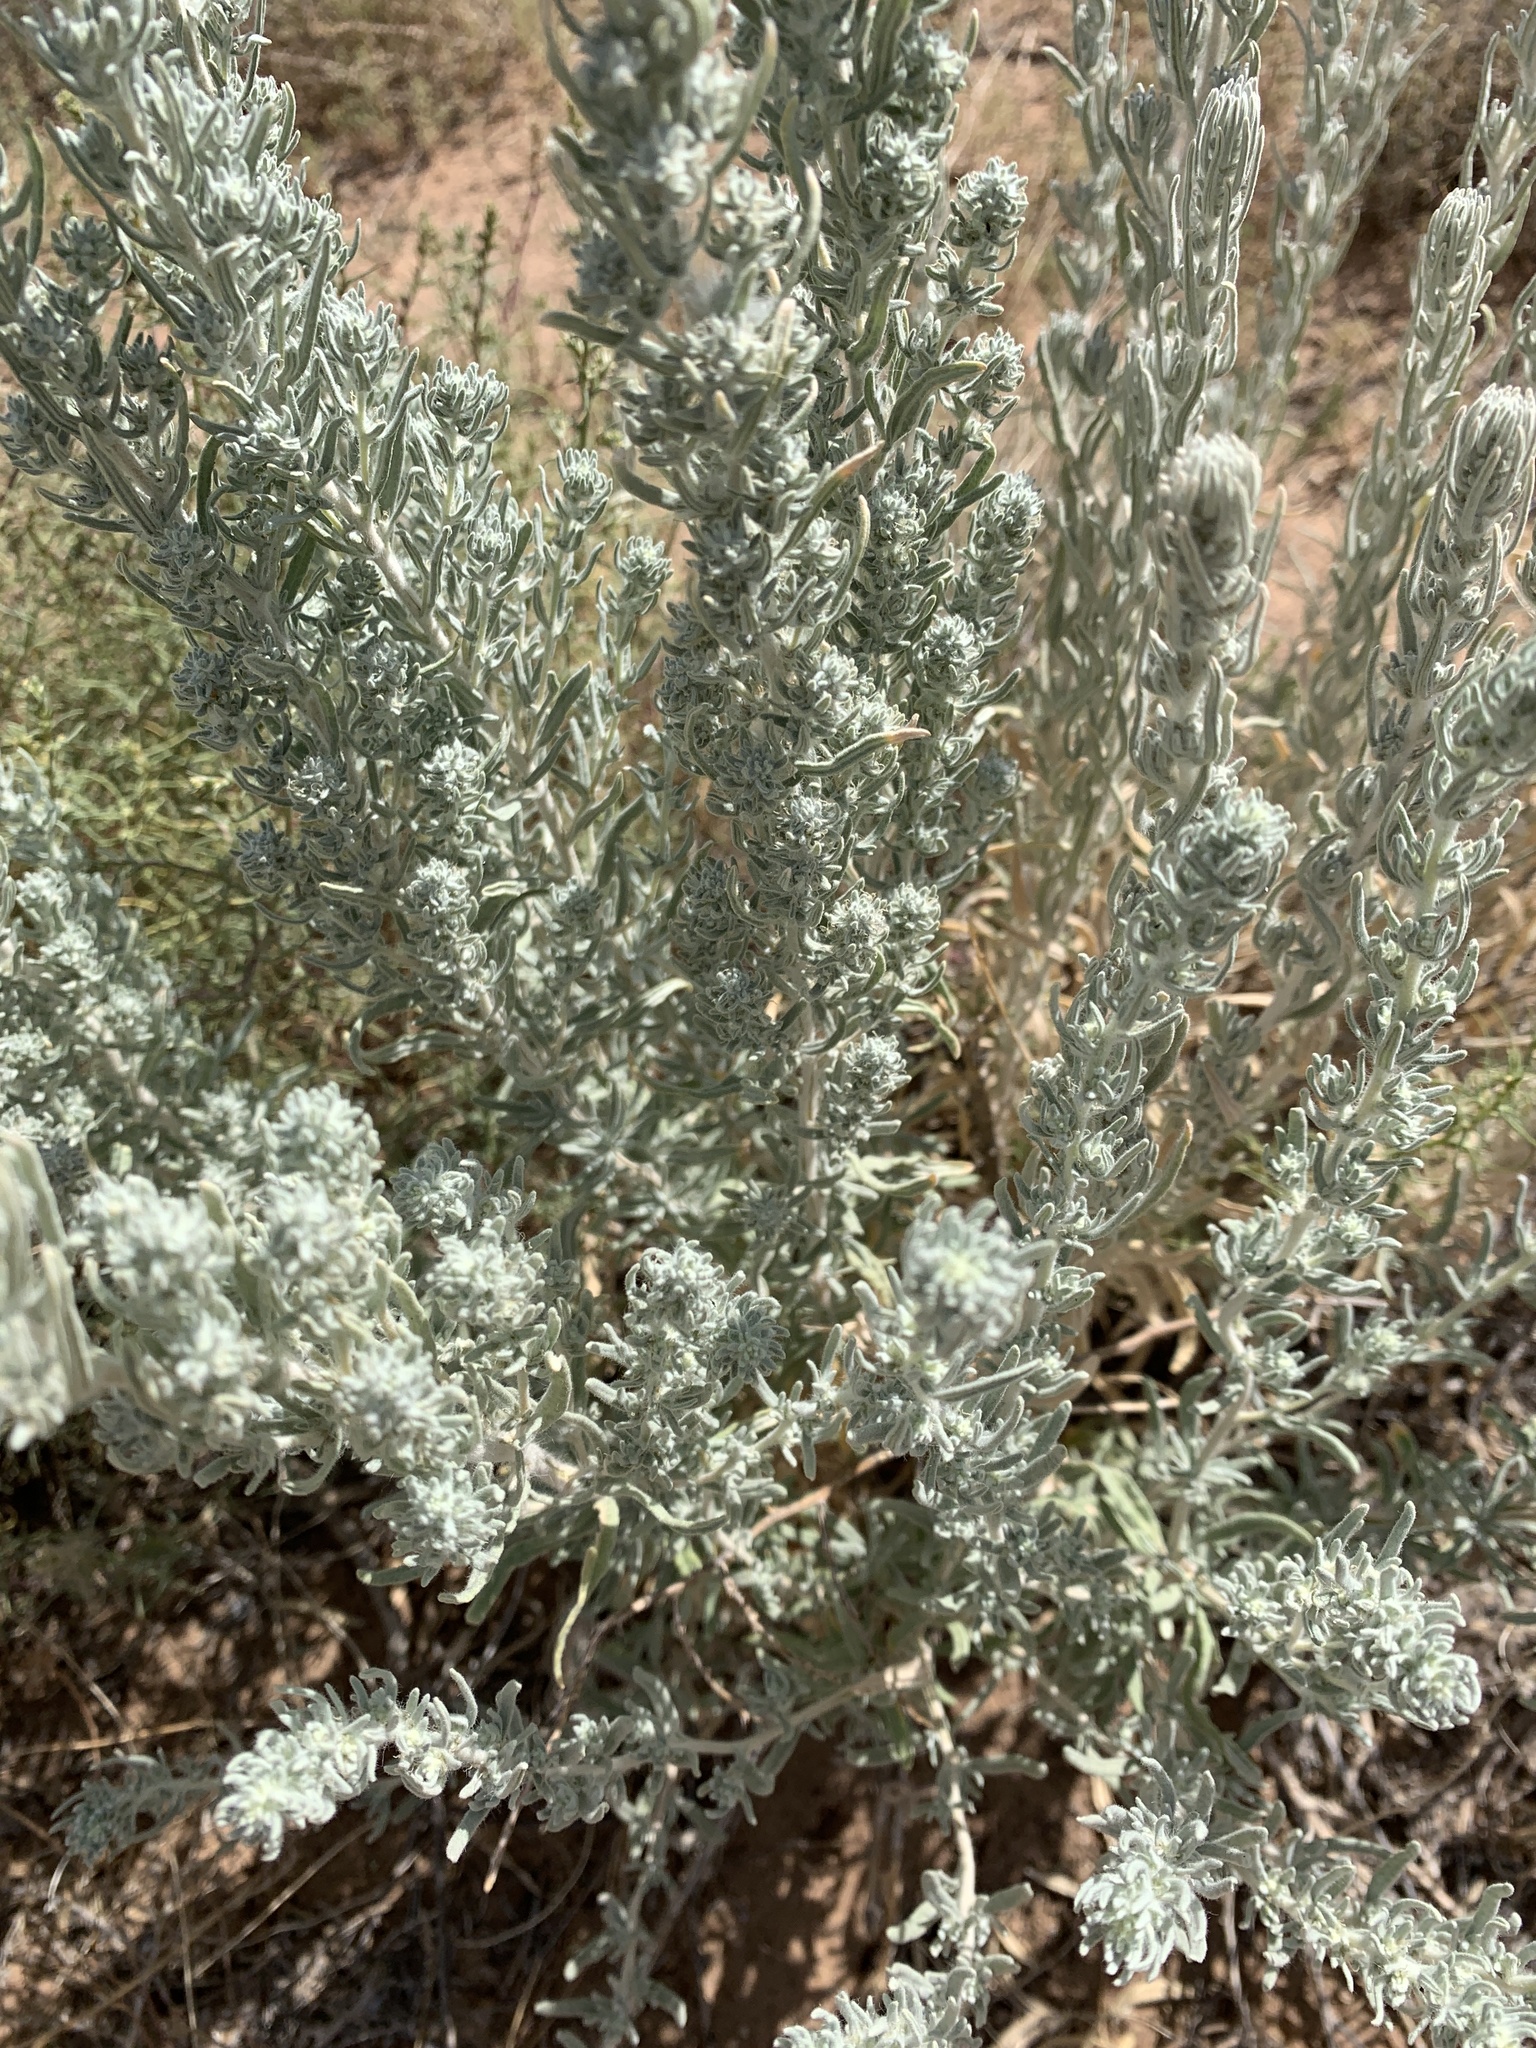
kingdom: Plantae
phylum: Tracheophyta
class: Magnoliopsida
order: Caryophyllales
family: Amaranthaceae
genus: Krascheninnikovia
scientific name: Krascheninnikovia lanata
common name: Winterfat
